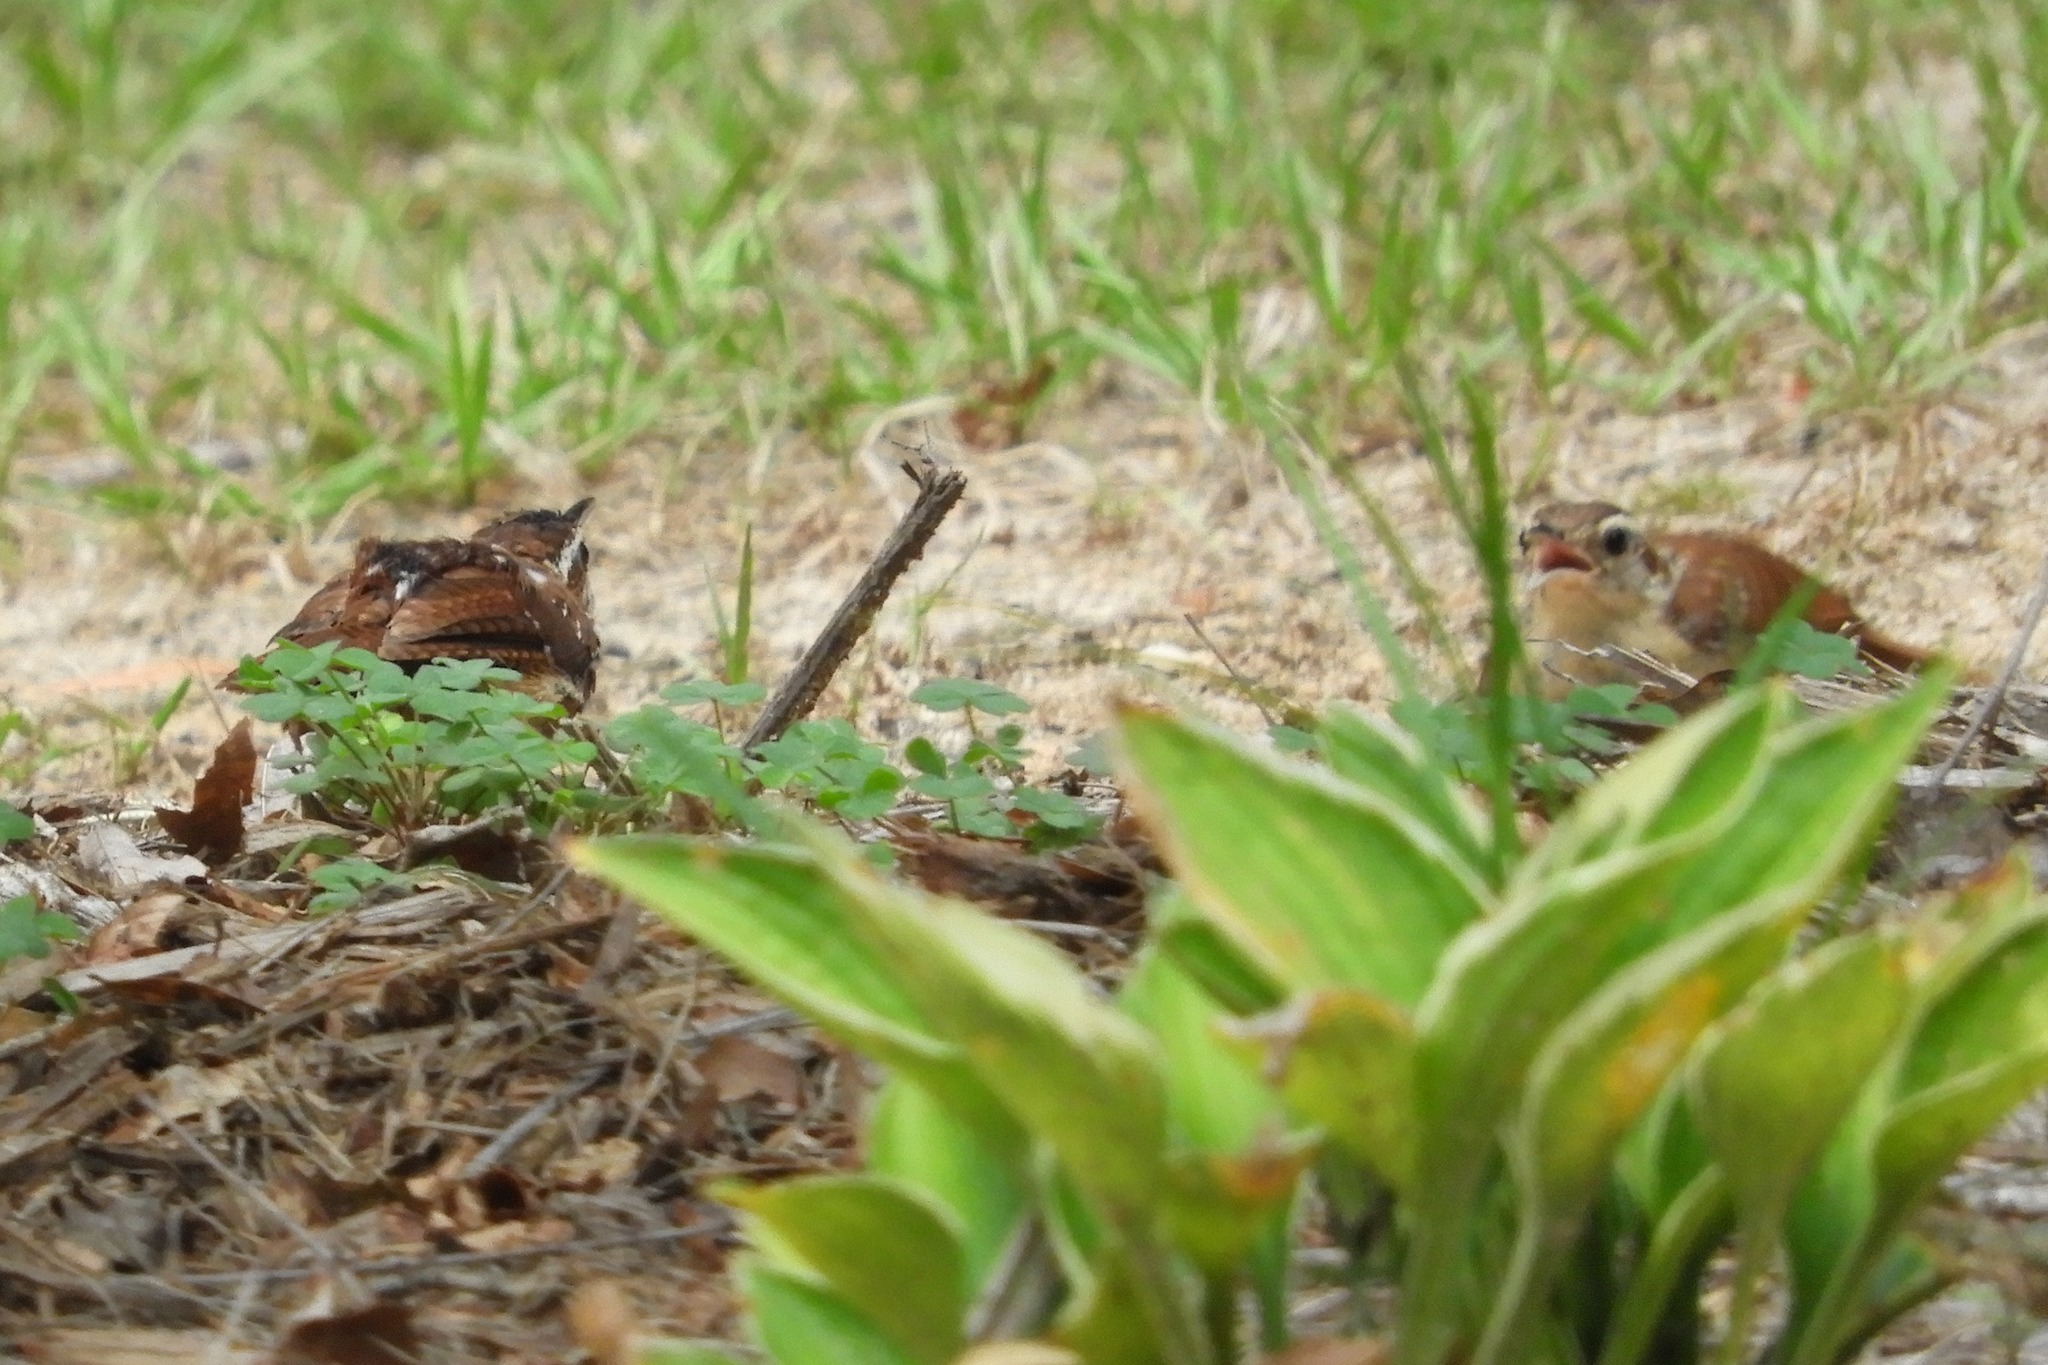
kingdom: Animalia
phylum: Chordata
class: Aves
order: Passeriformes
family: Troglodytidae
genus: Thryothorus
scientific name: Thryothorus ludovicianus
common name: Carolina wren
